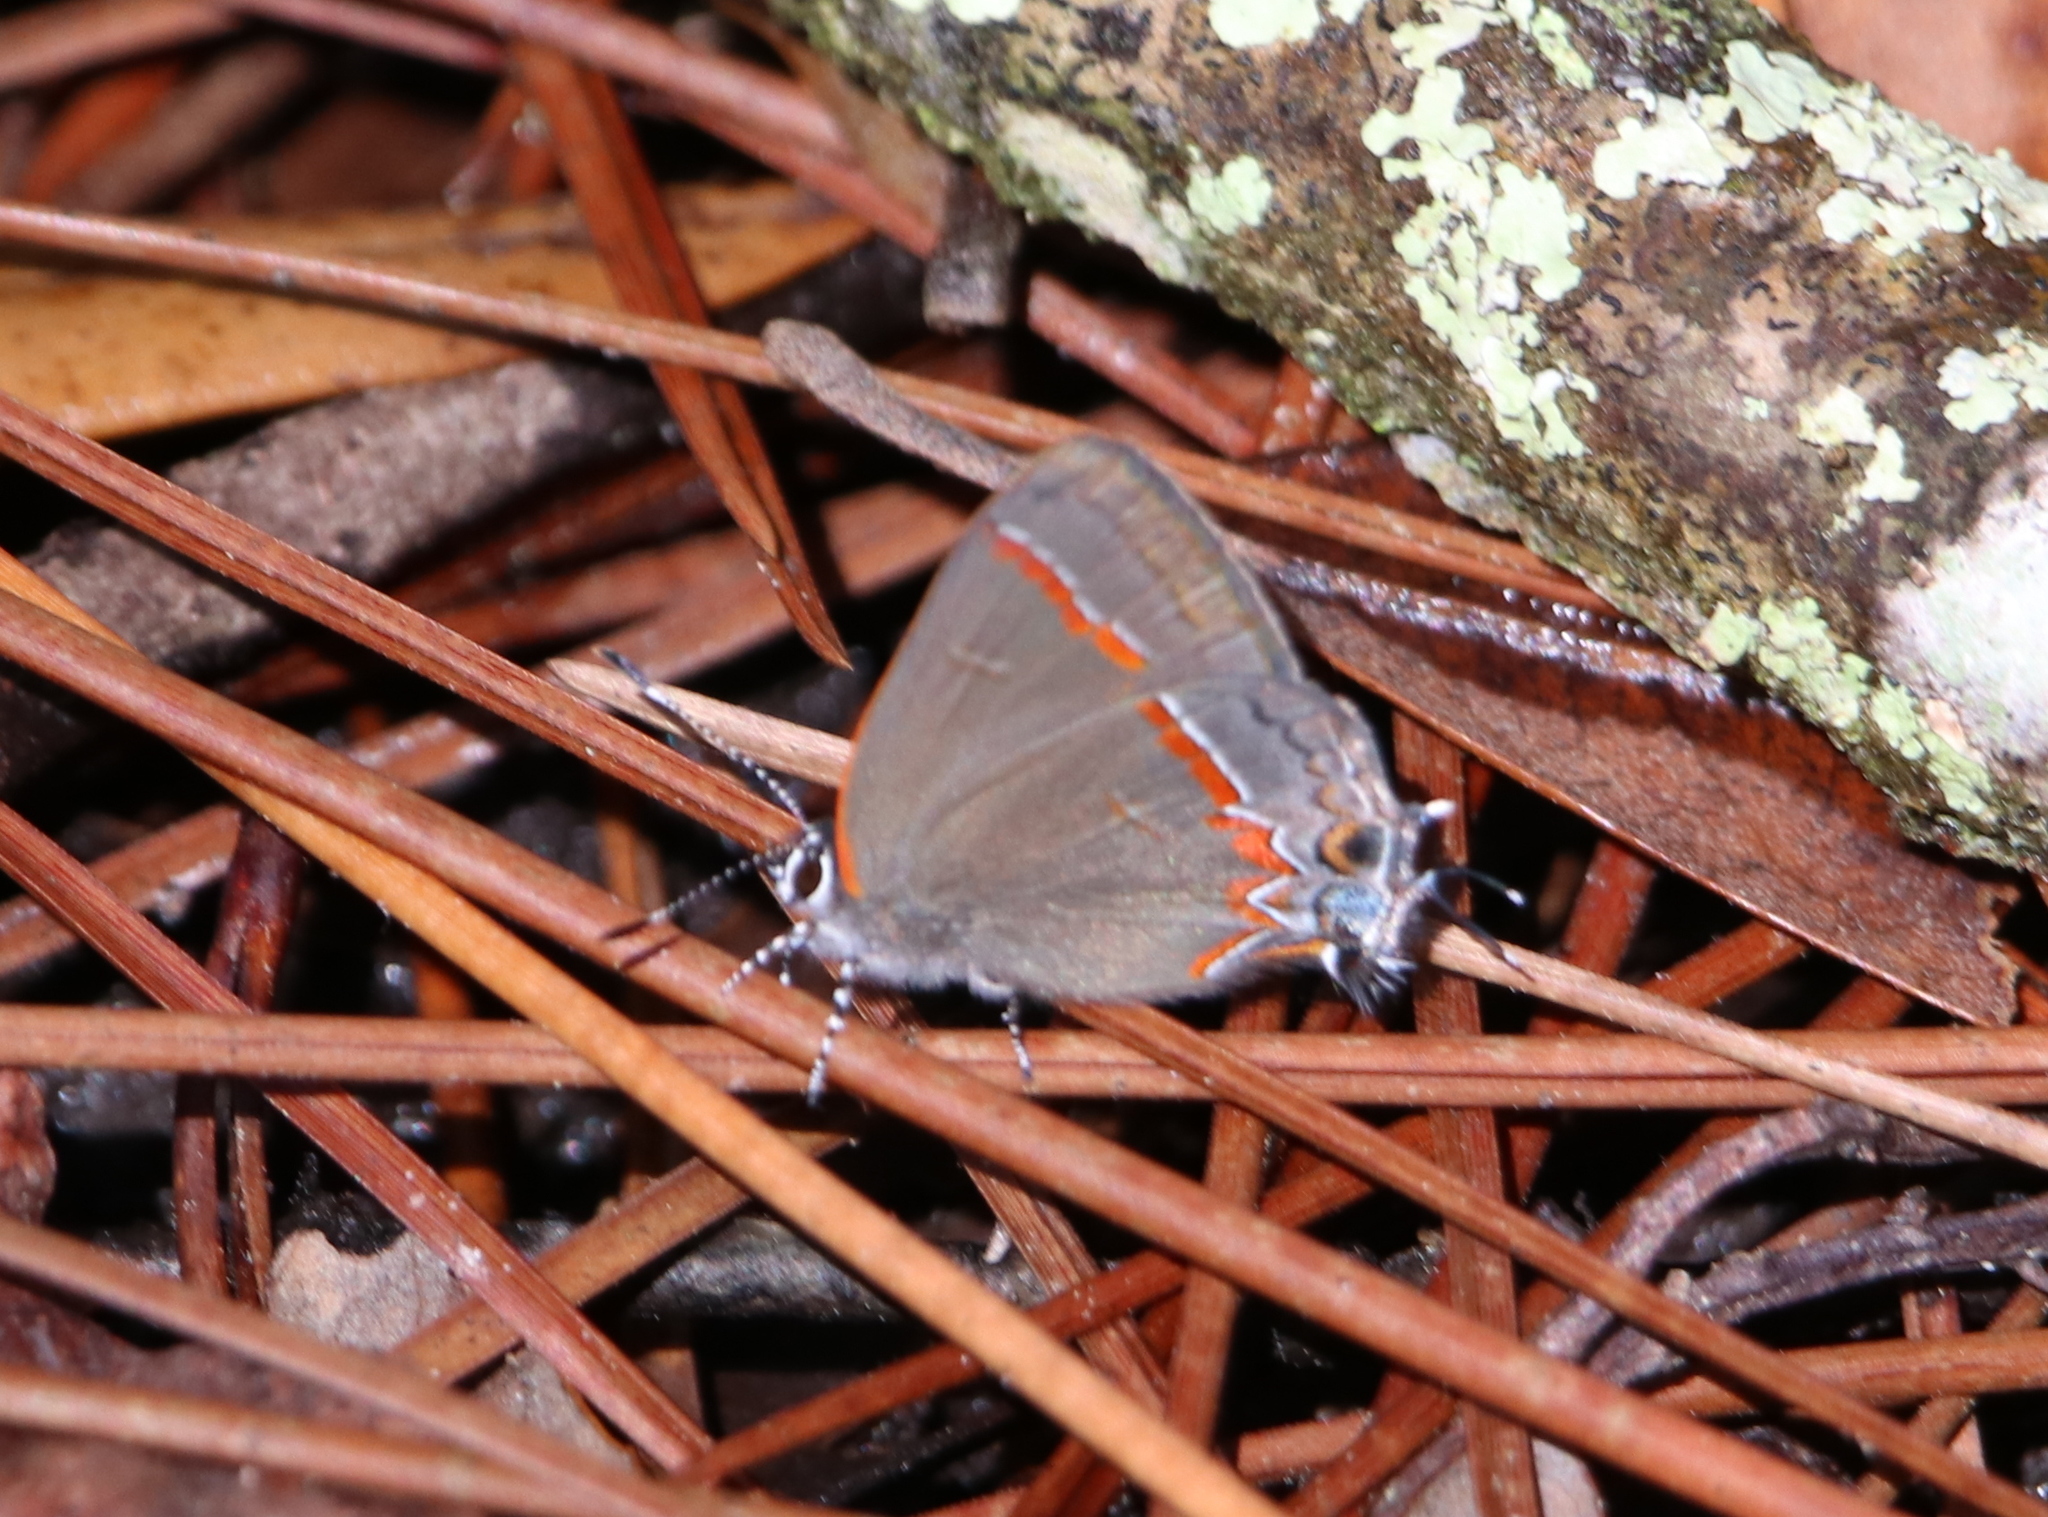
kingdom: Animalia
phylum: Arthropoda
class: Insecta
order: Lepidoptera
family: Lycaenidae
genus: Calycopis
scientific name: Calycopis cecrops
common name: Red-banded hairstreak
